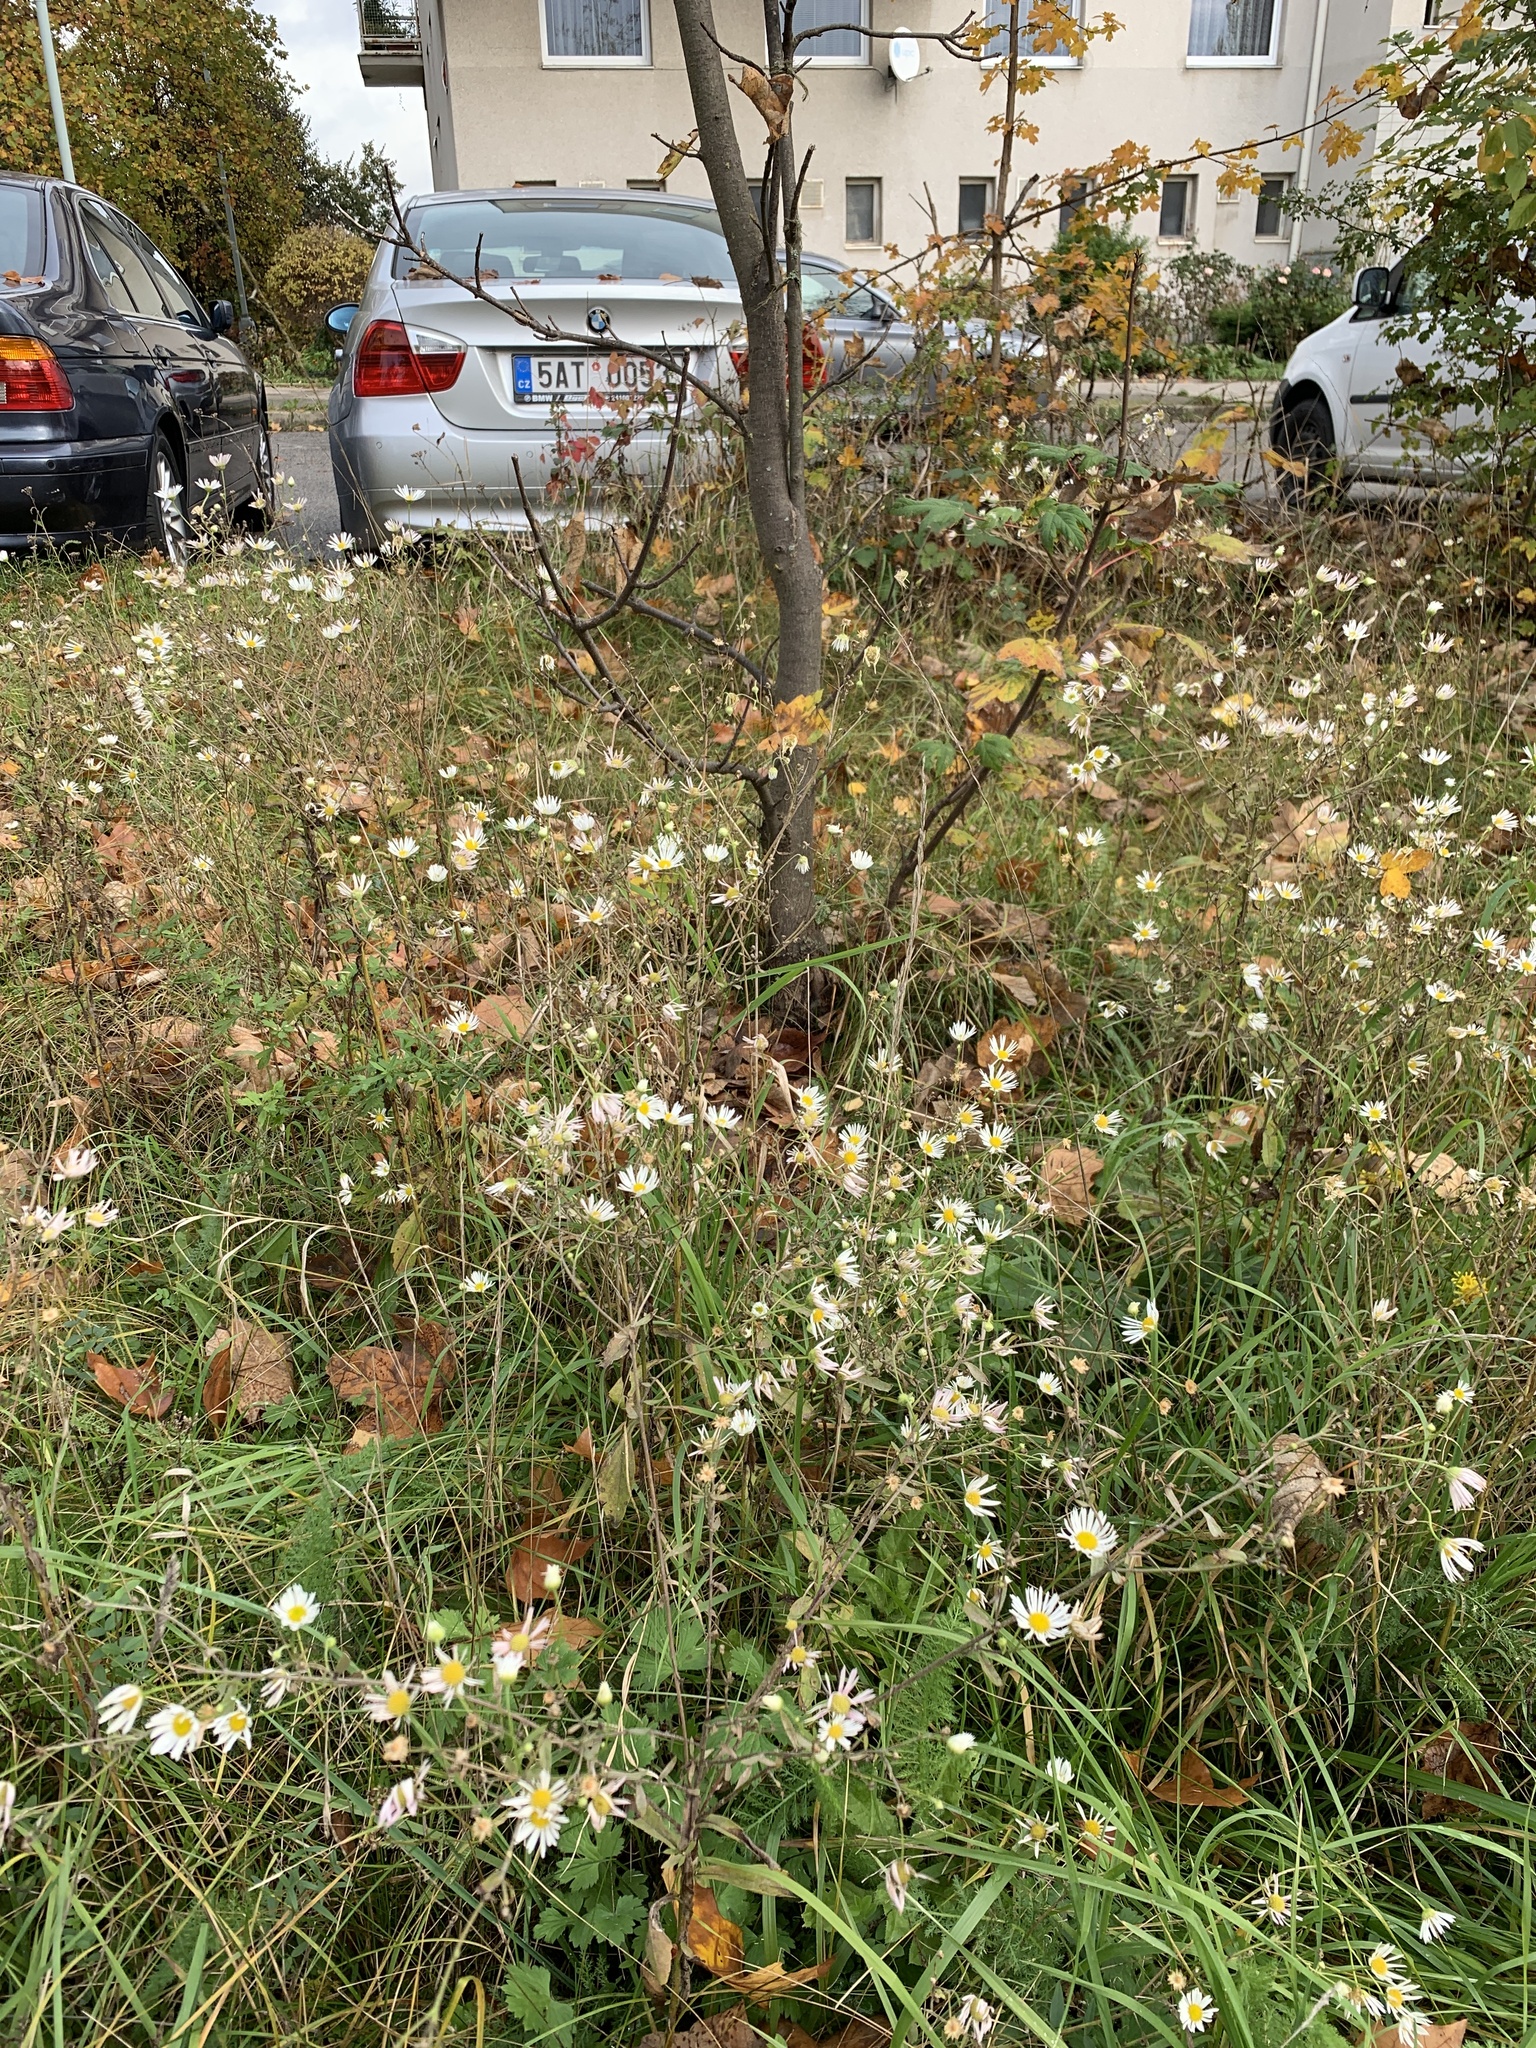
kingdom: Plantae
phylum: Tracheophyta
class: Magnoliopsida
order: Asterales
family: Asteraceae
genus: Erigeron
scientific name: Erigeron annuus
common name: Tall fleabane
